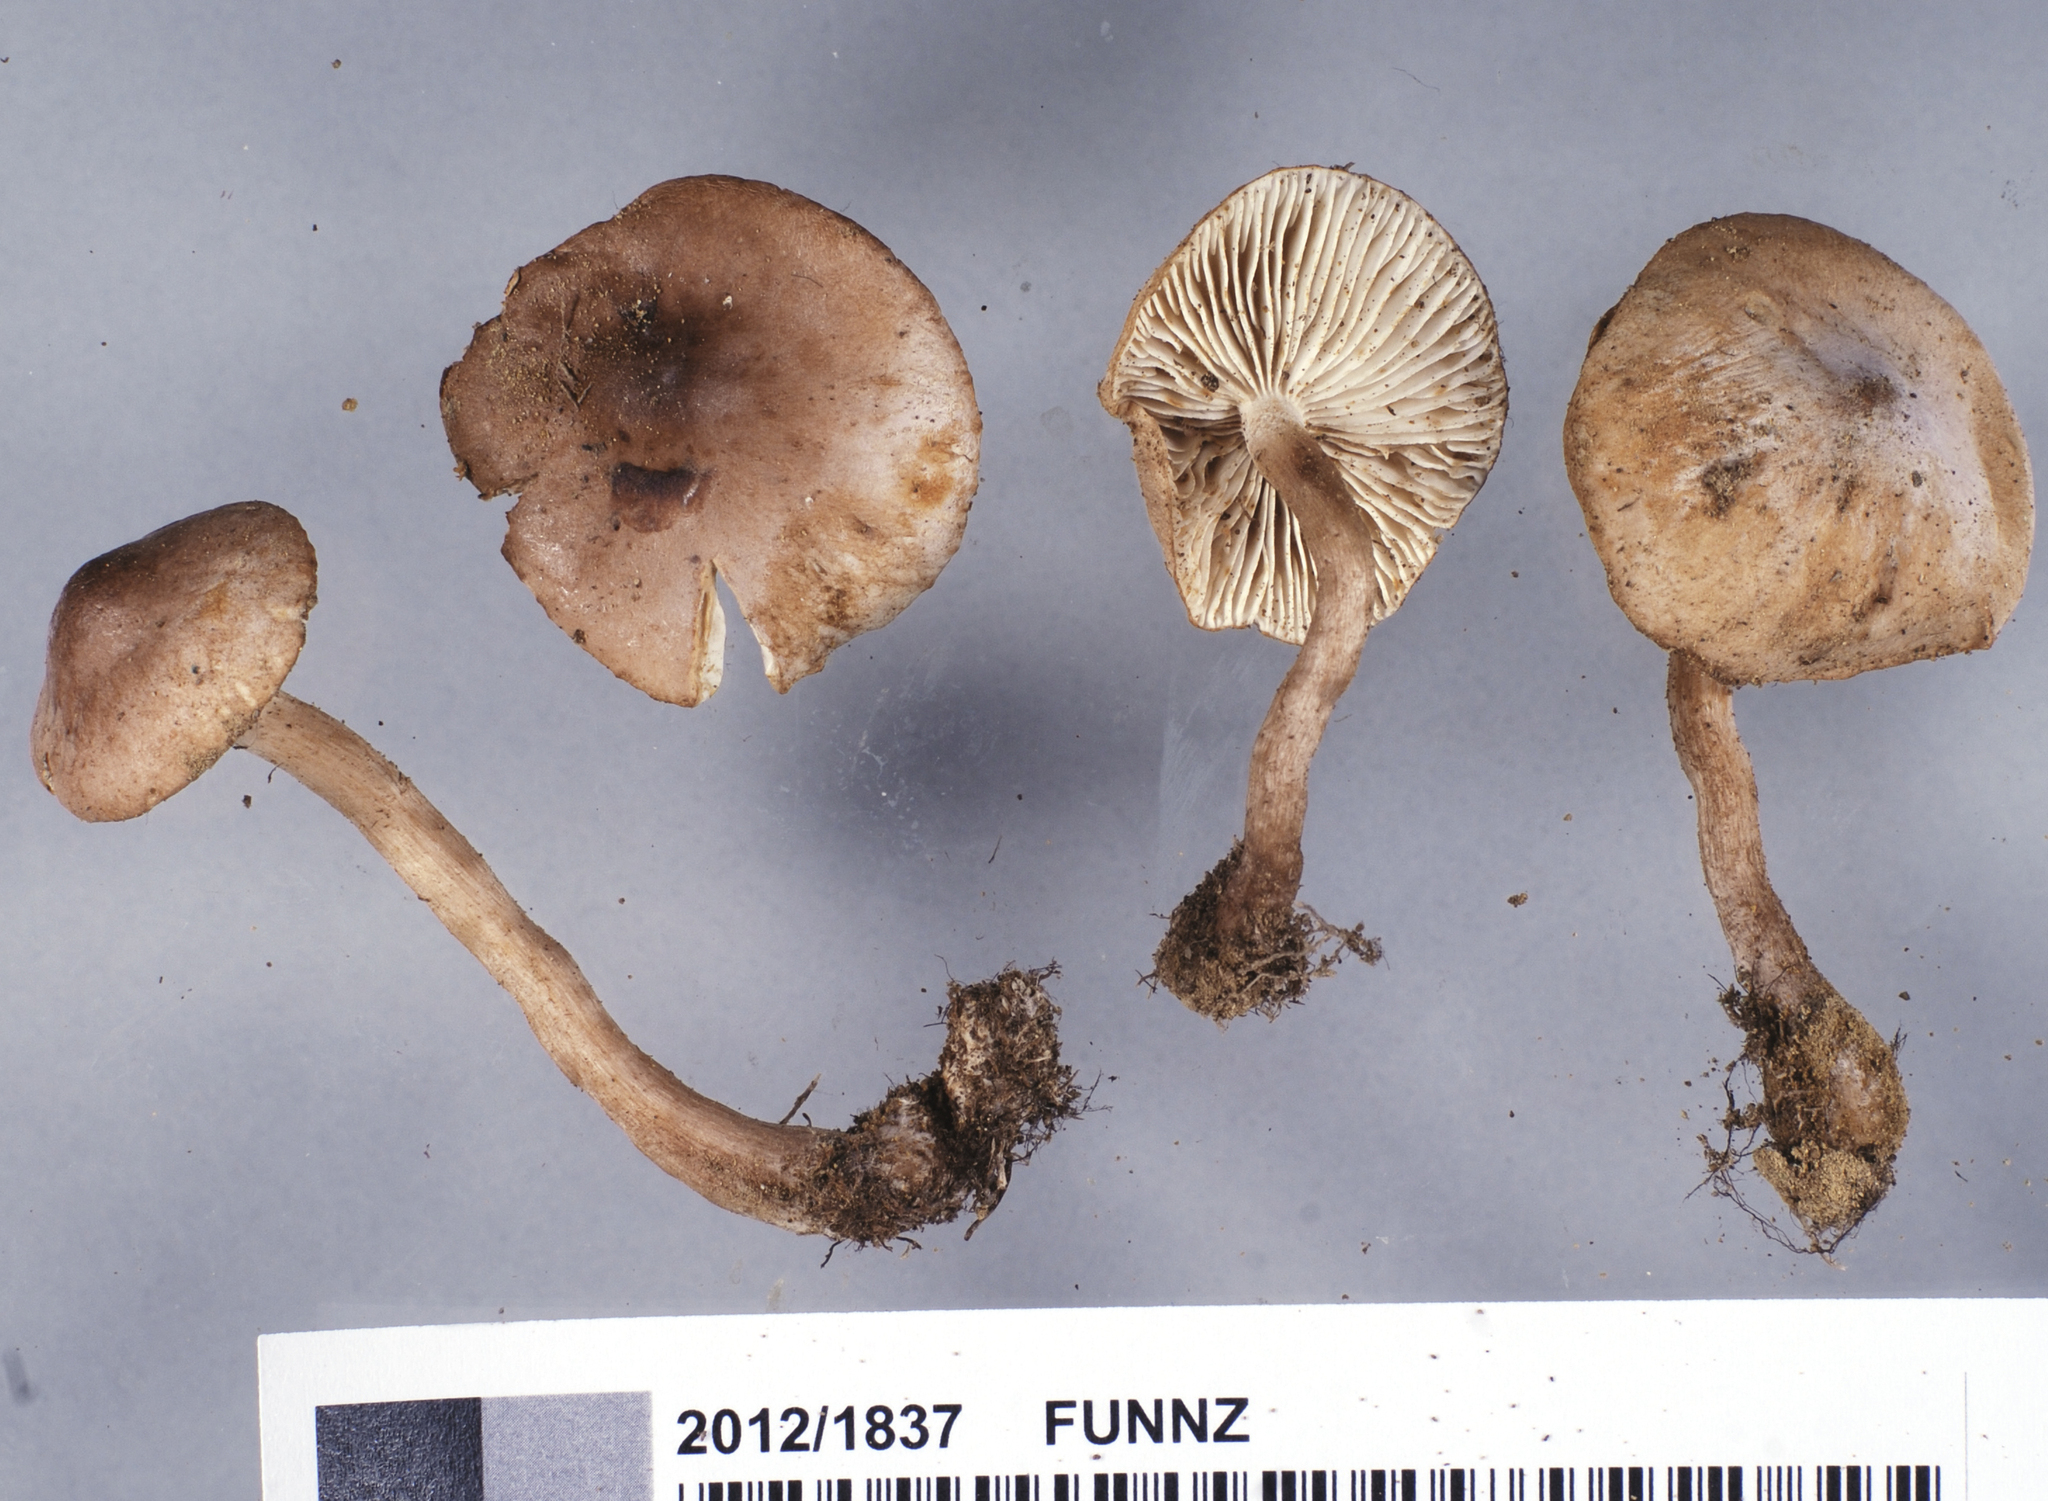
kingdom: Fungi
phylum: Basidiomycota
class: Agaricomycetes
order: Agaricales
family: Tricholomataceae
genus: Tricholoma
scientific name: Tricholoma elegans
